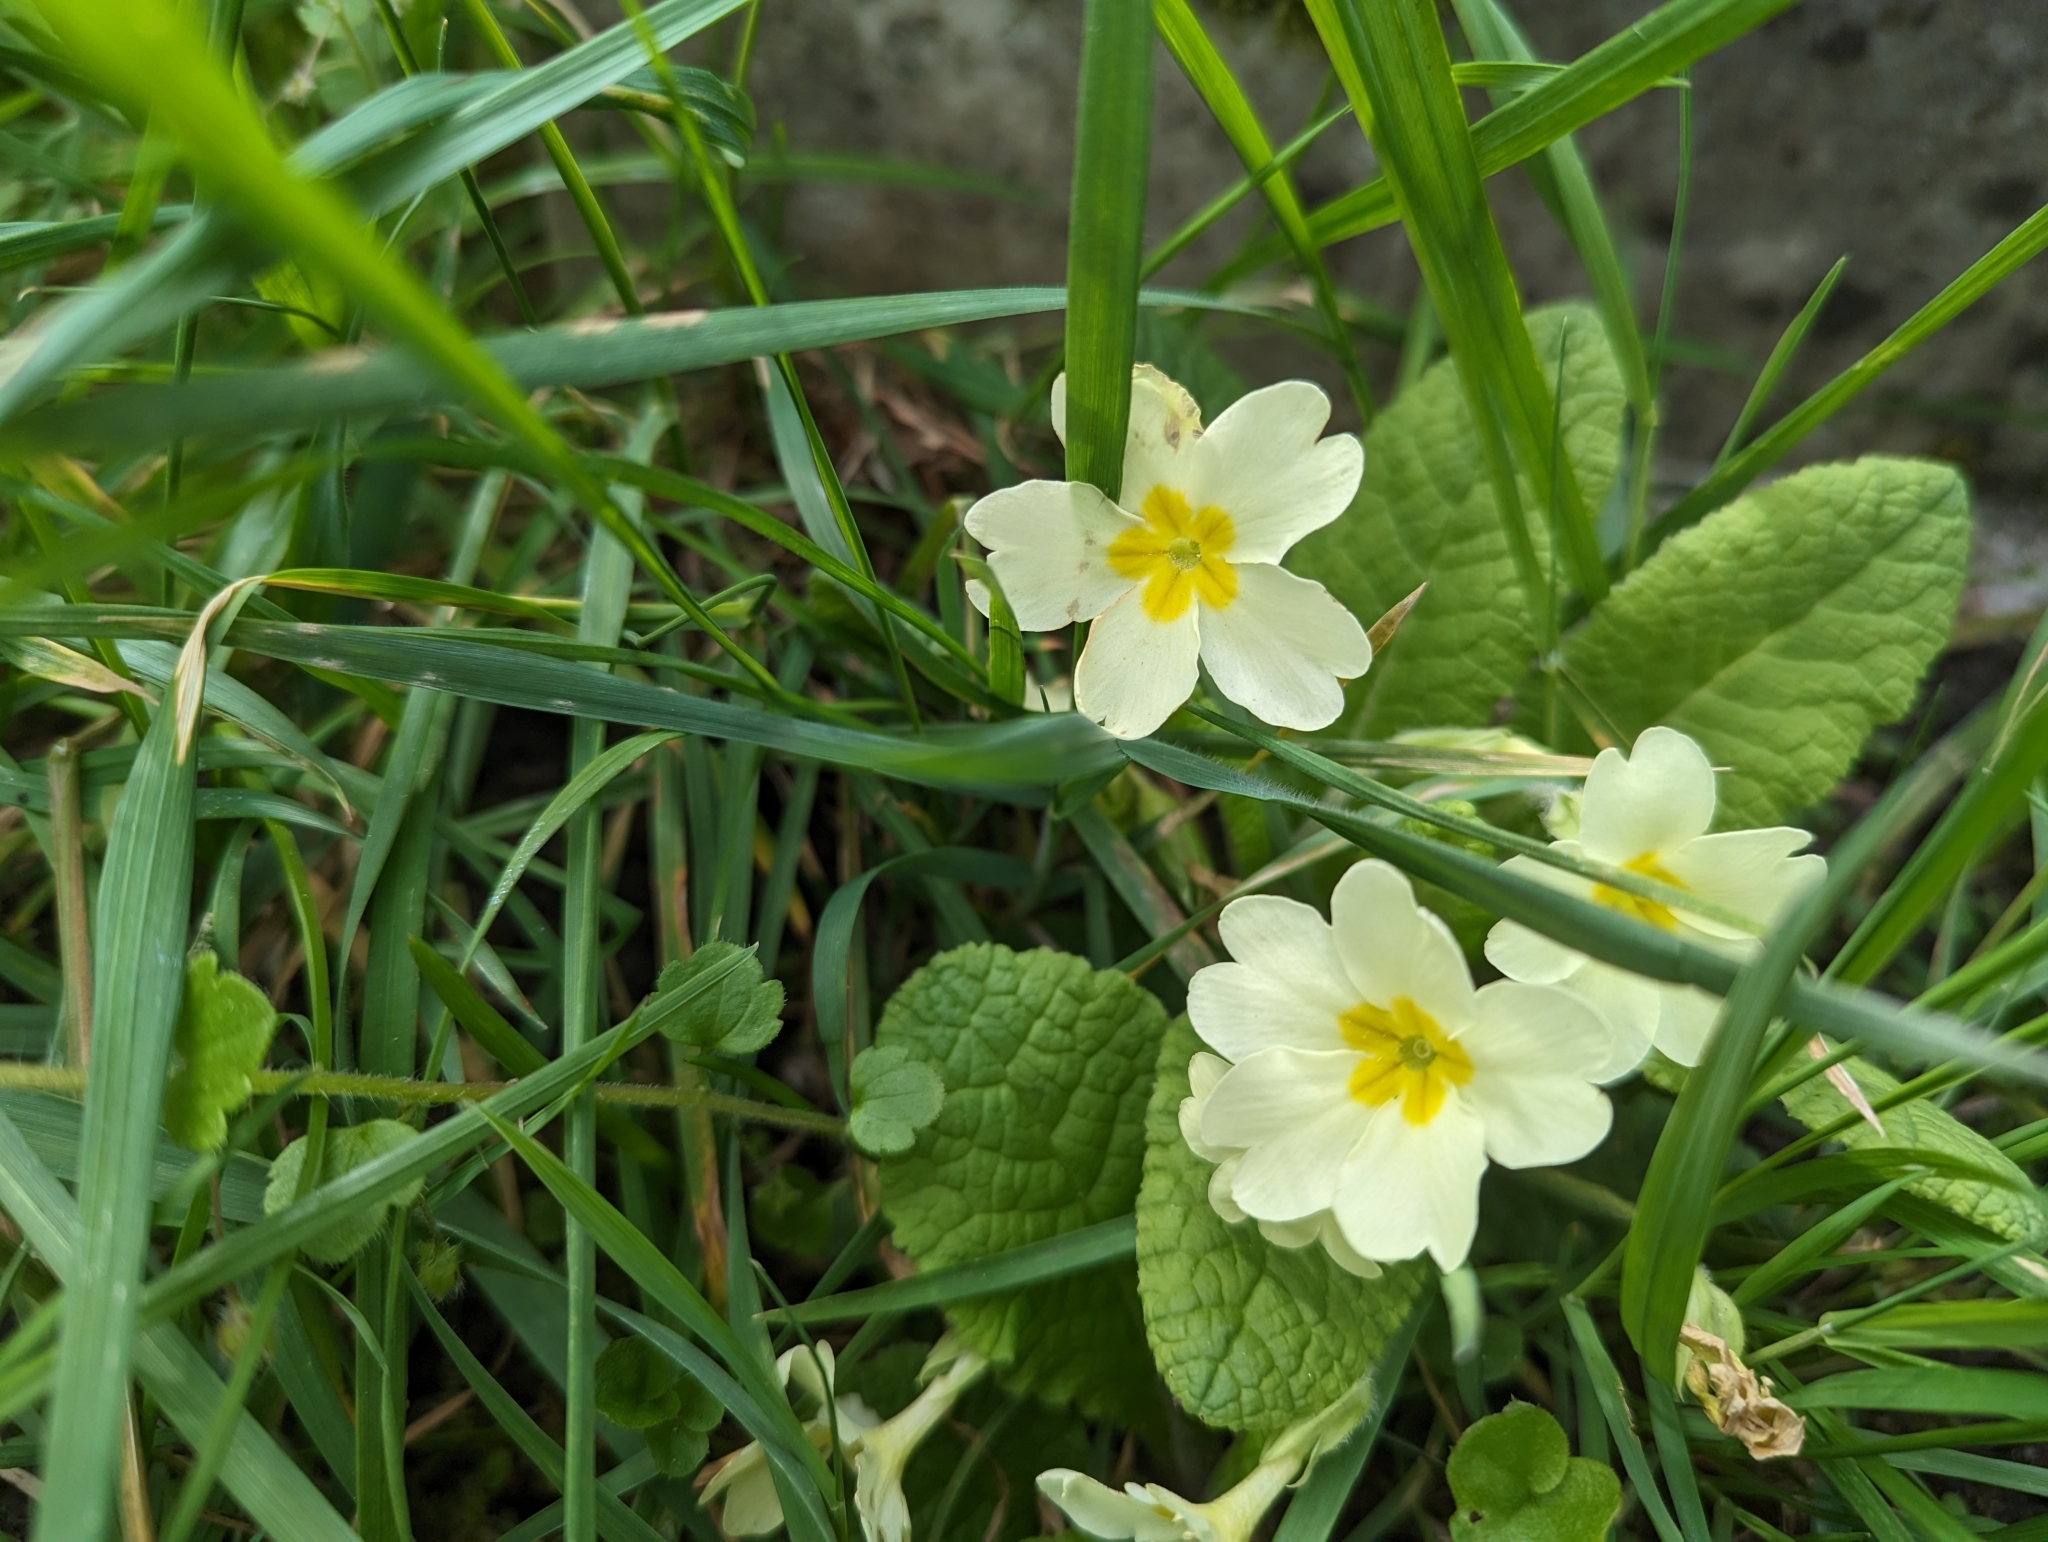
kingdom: Plantae
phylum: Tracheophyta
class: Magnoliopsida
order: Ericales
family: Primulaceae
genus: Primula
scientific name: Primula vulgaris
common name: Primrose
